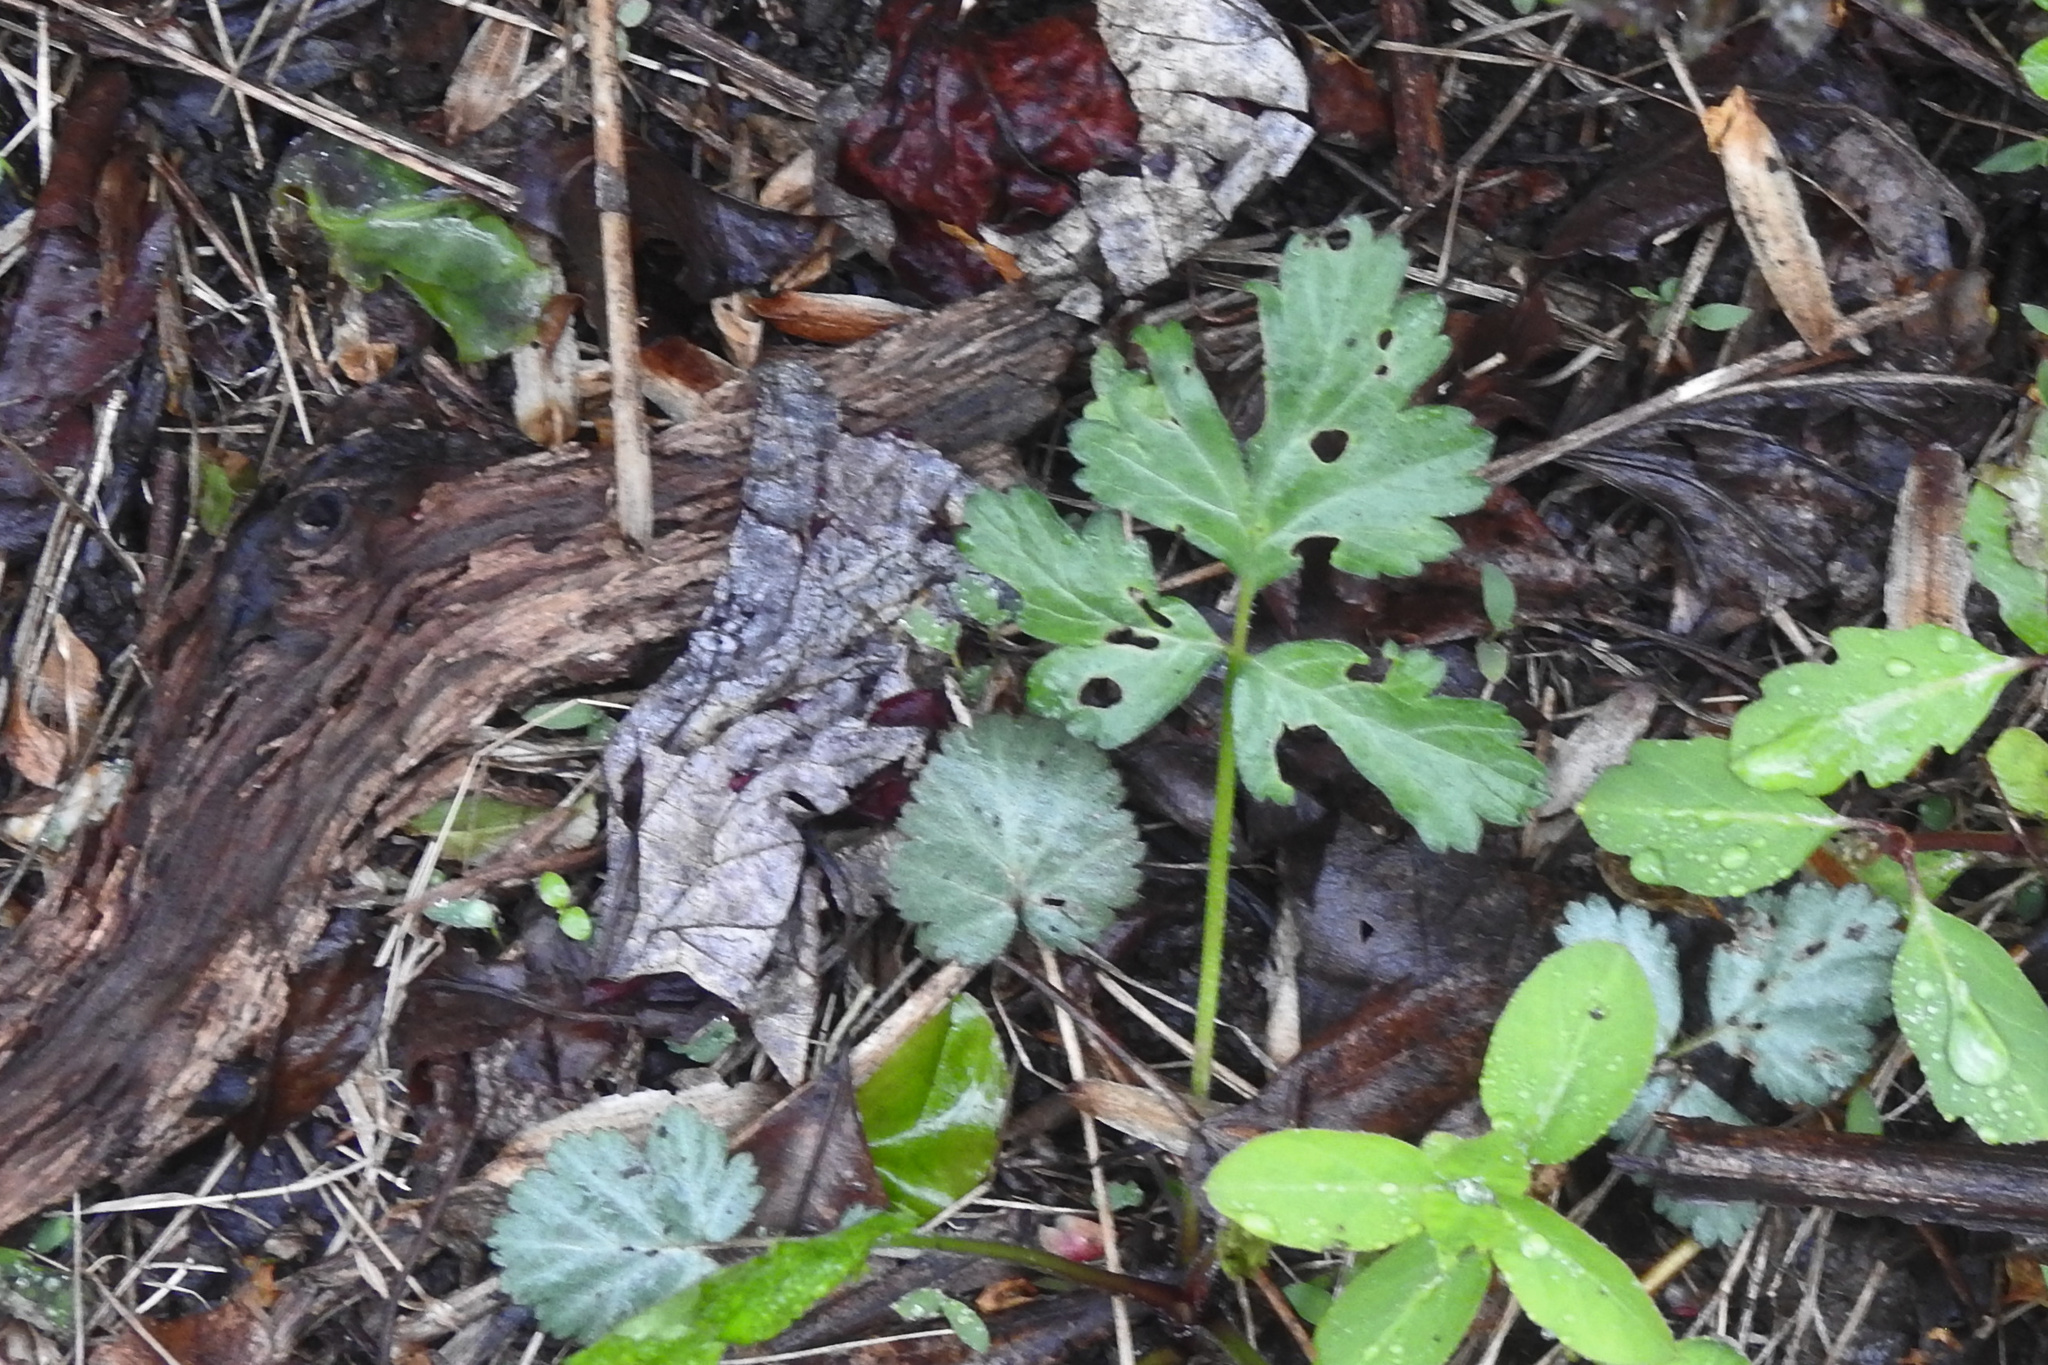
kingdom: Plantae
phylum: Tracheophyta
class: Magnoliopsida
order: Rosales
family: Rosaceae
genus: Geum
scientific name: Geum canadense
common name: White avens
